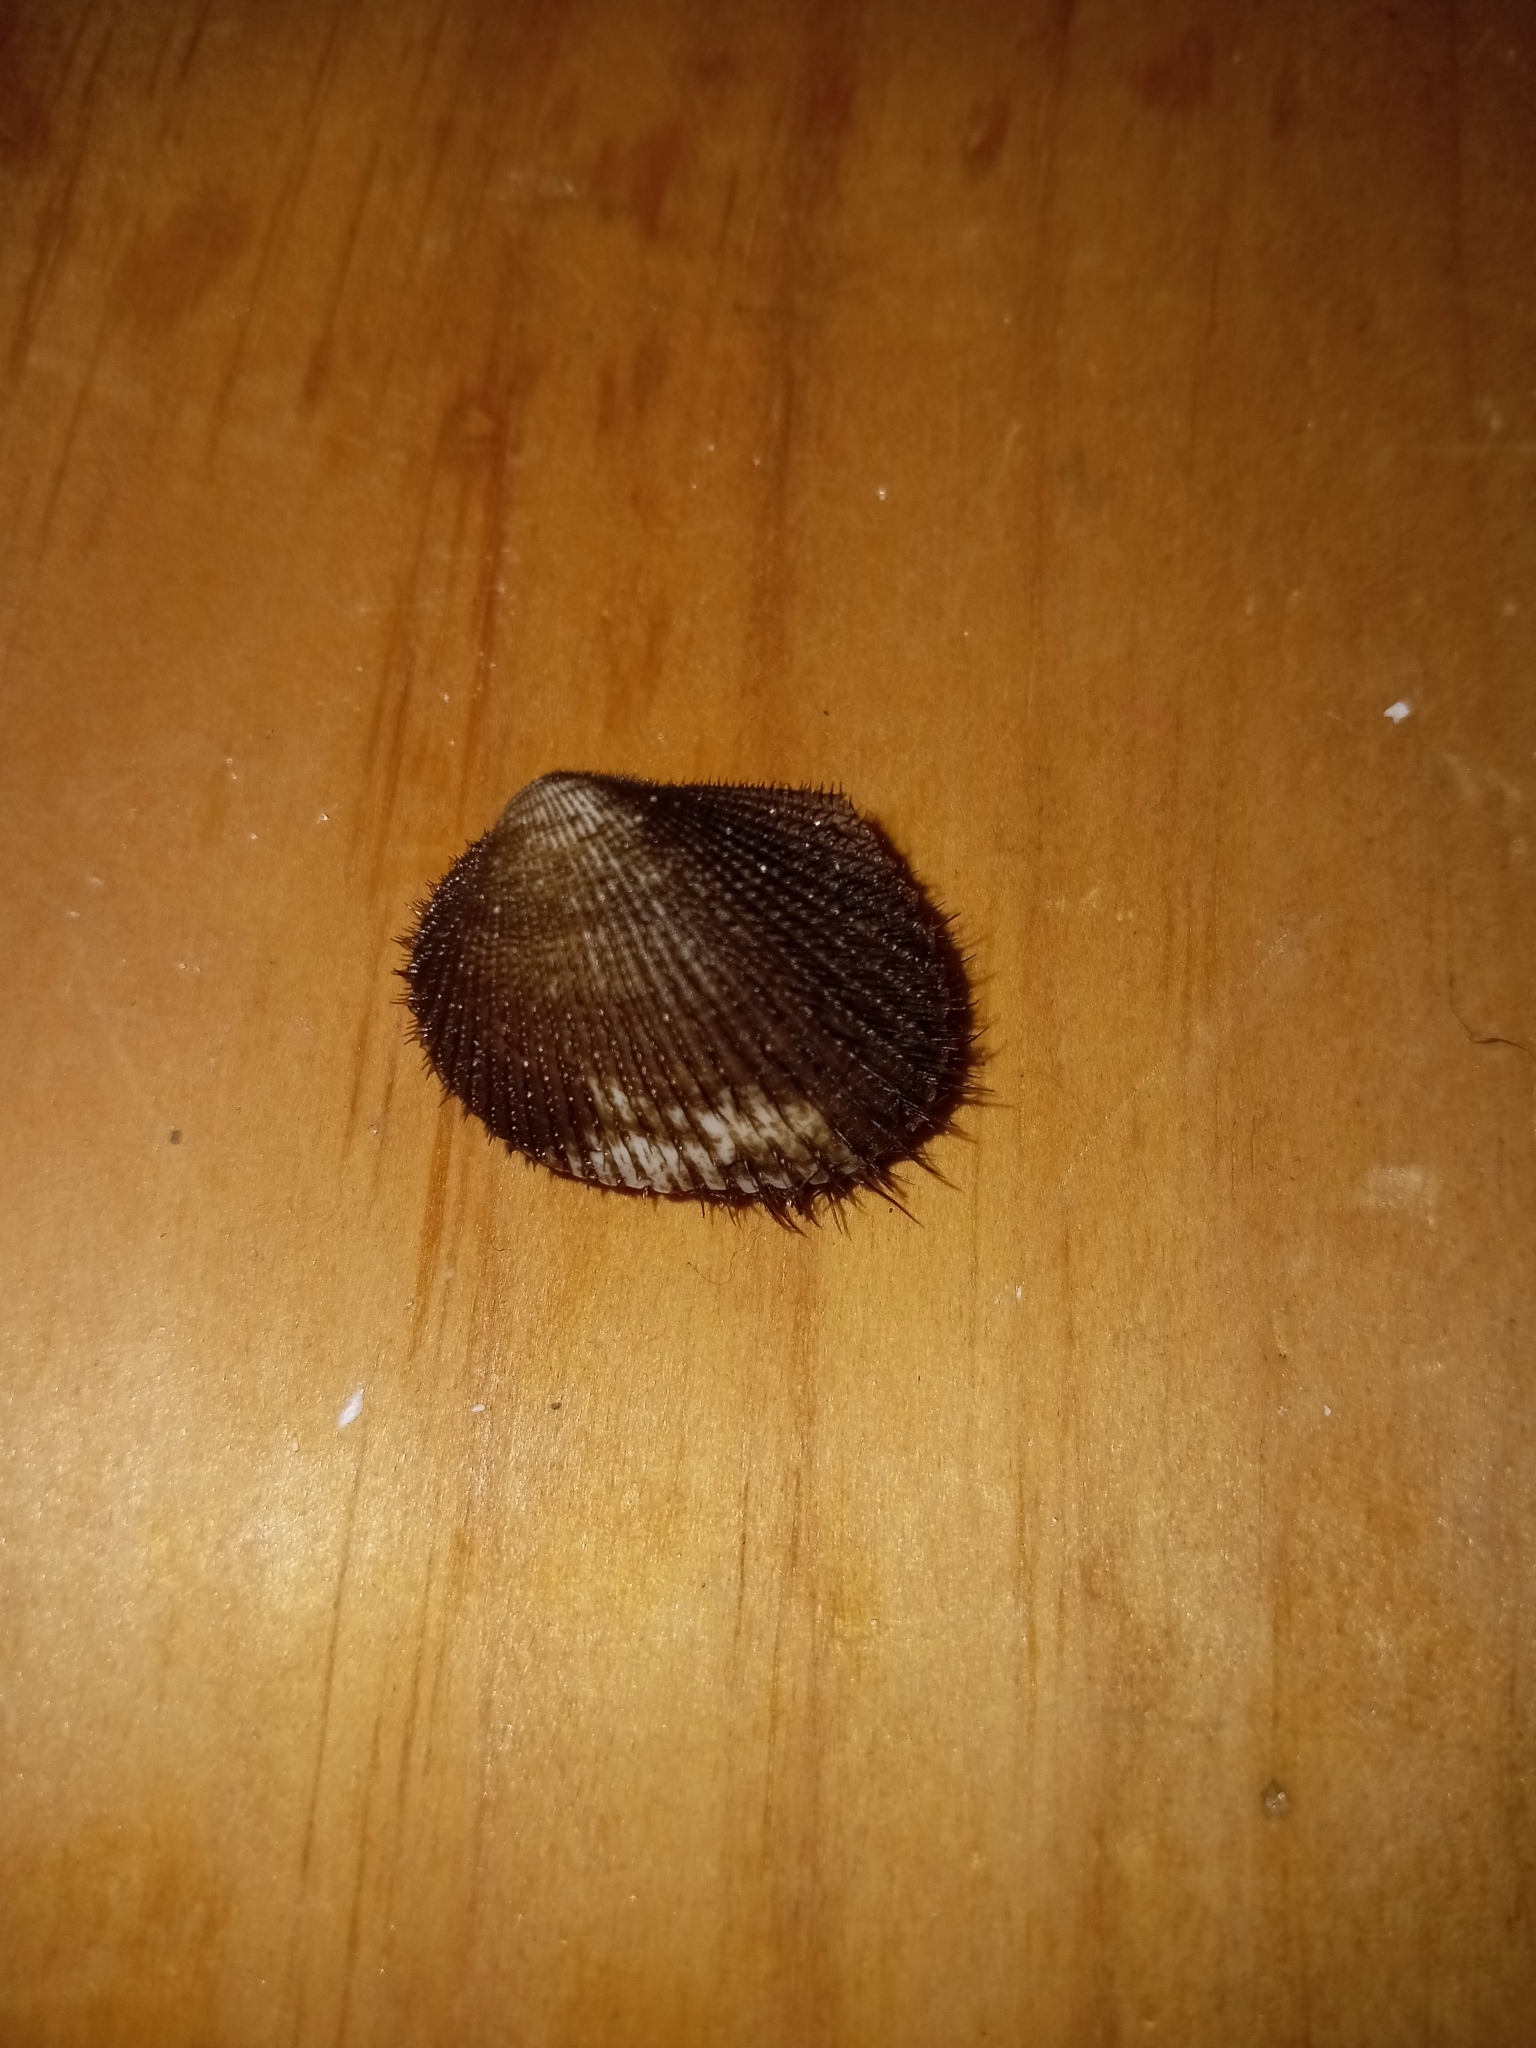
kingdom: Animalia
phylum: Mollusca
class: Bivalvia
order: Arcida
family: Arcidae
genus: Lunarca
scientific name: Lunarca ovalis
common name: Blood ark
